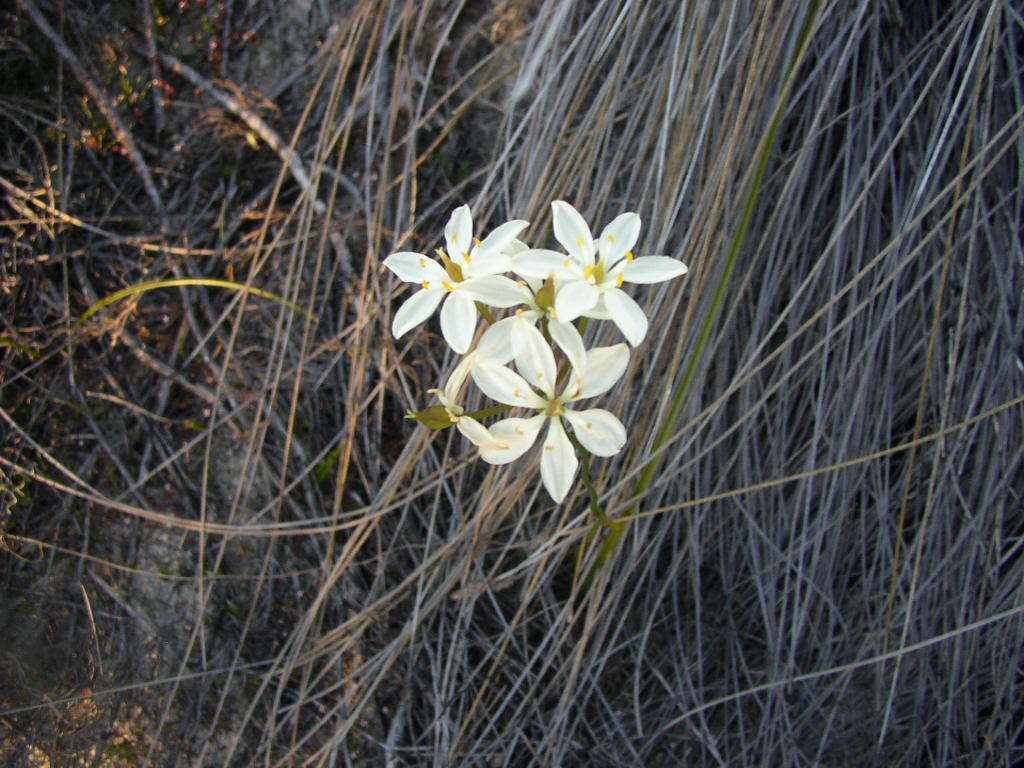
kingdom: Plantae
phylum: Tracheophyta
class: Liliopsida
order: Liliales
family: Colchicaceae
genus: Burchardia
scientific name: Burchardia congesta
